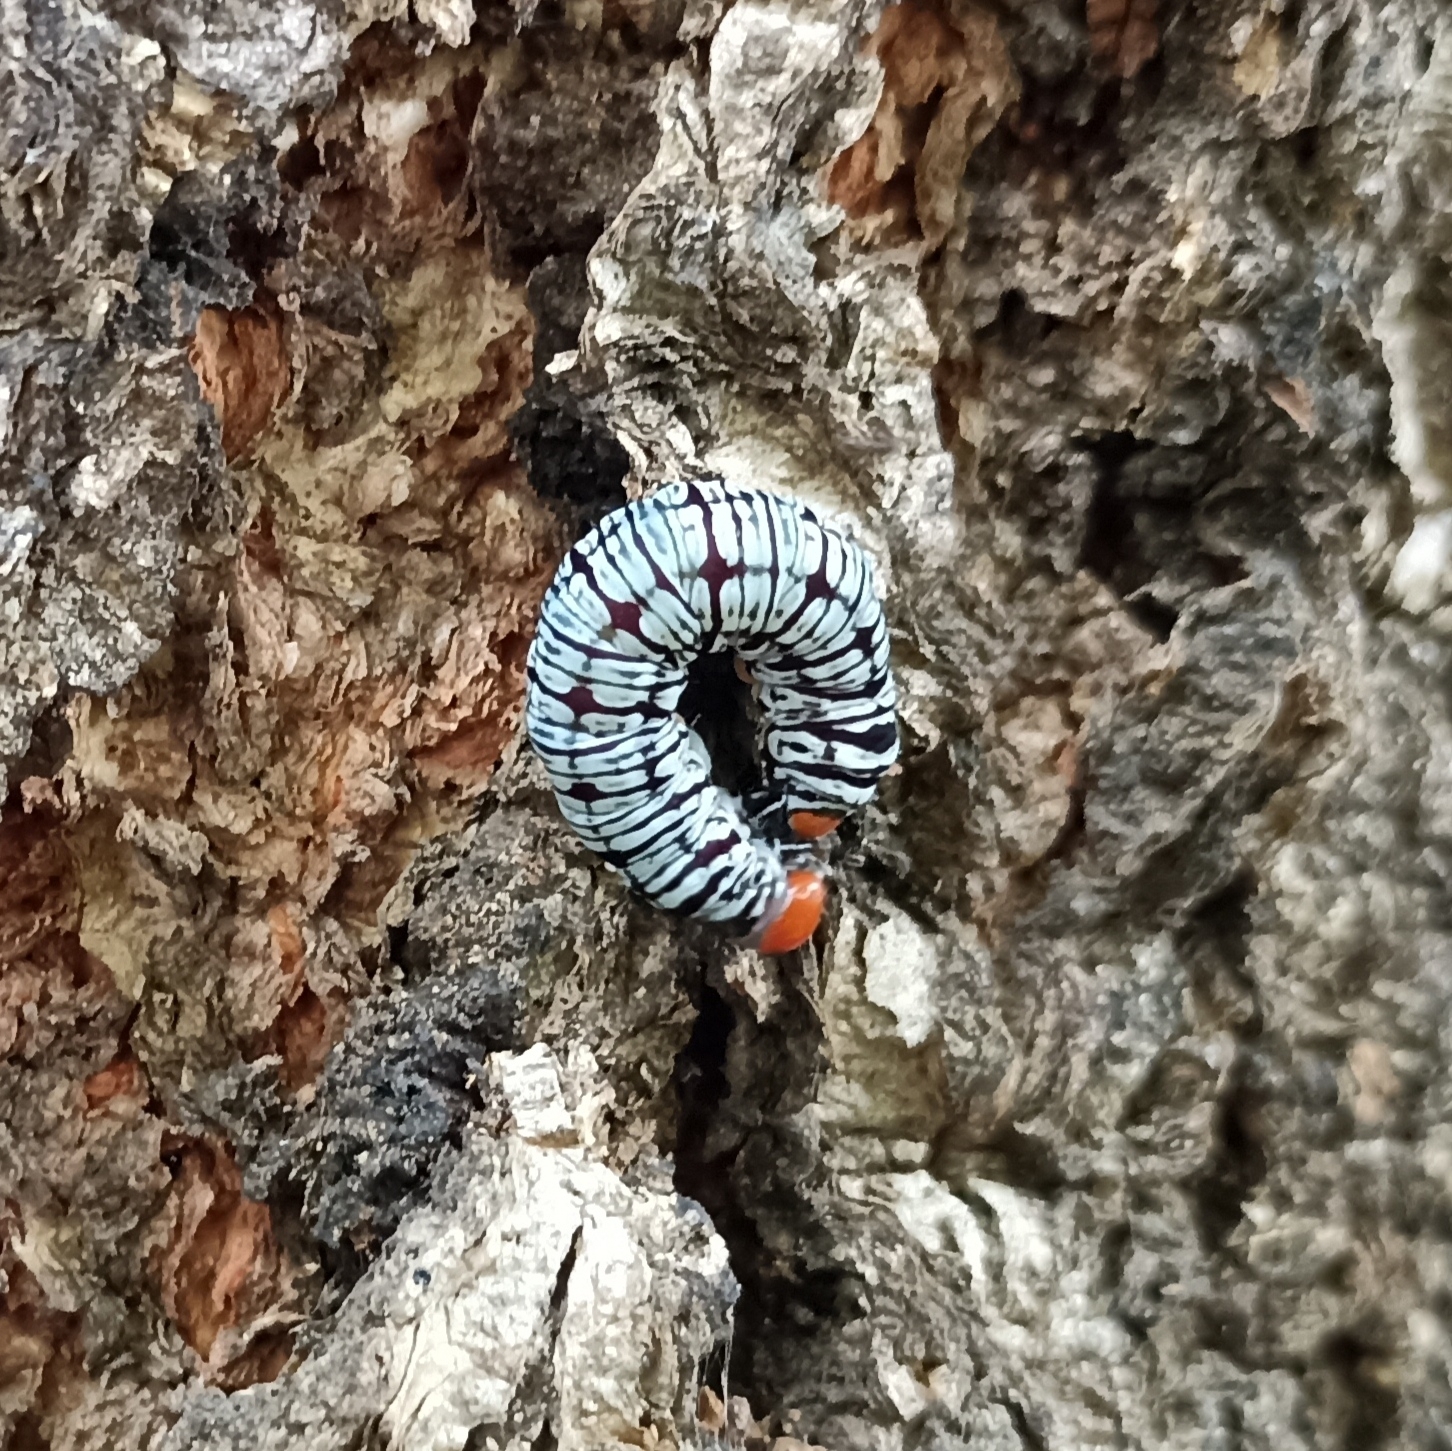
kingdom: Animalia
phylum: Arthropoda
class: Insecta
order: Lepidoptera
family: Erebidae
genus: Diphthera
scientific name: Diphthera festiva
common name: Hieroglyphic moth
